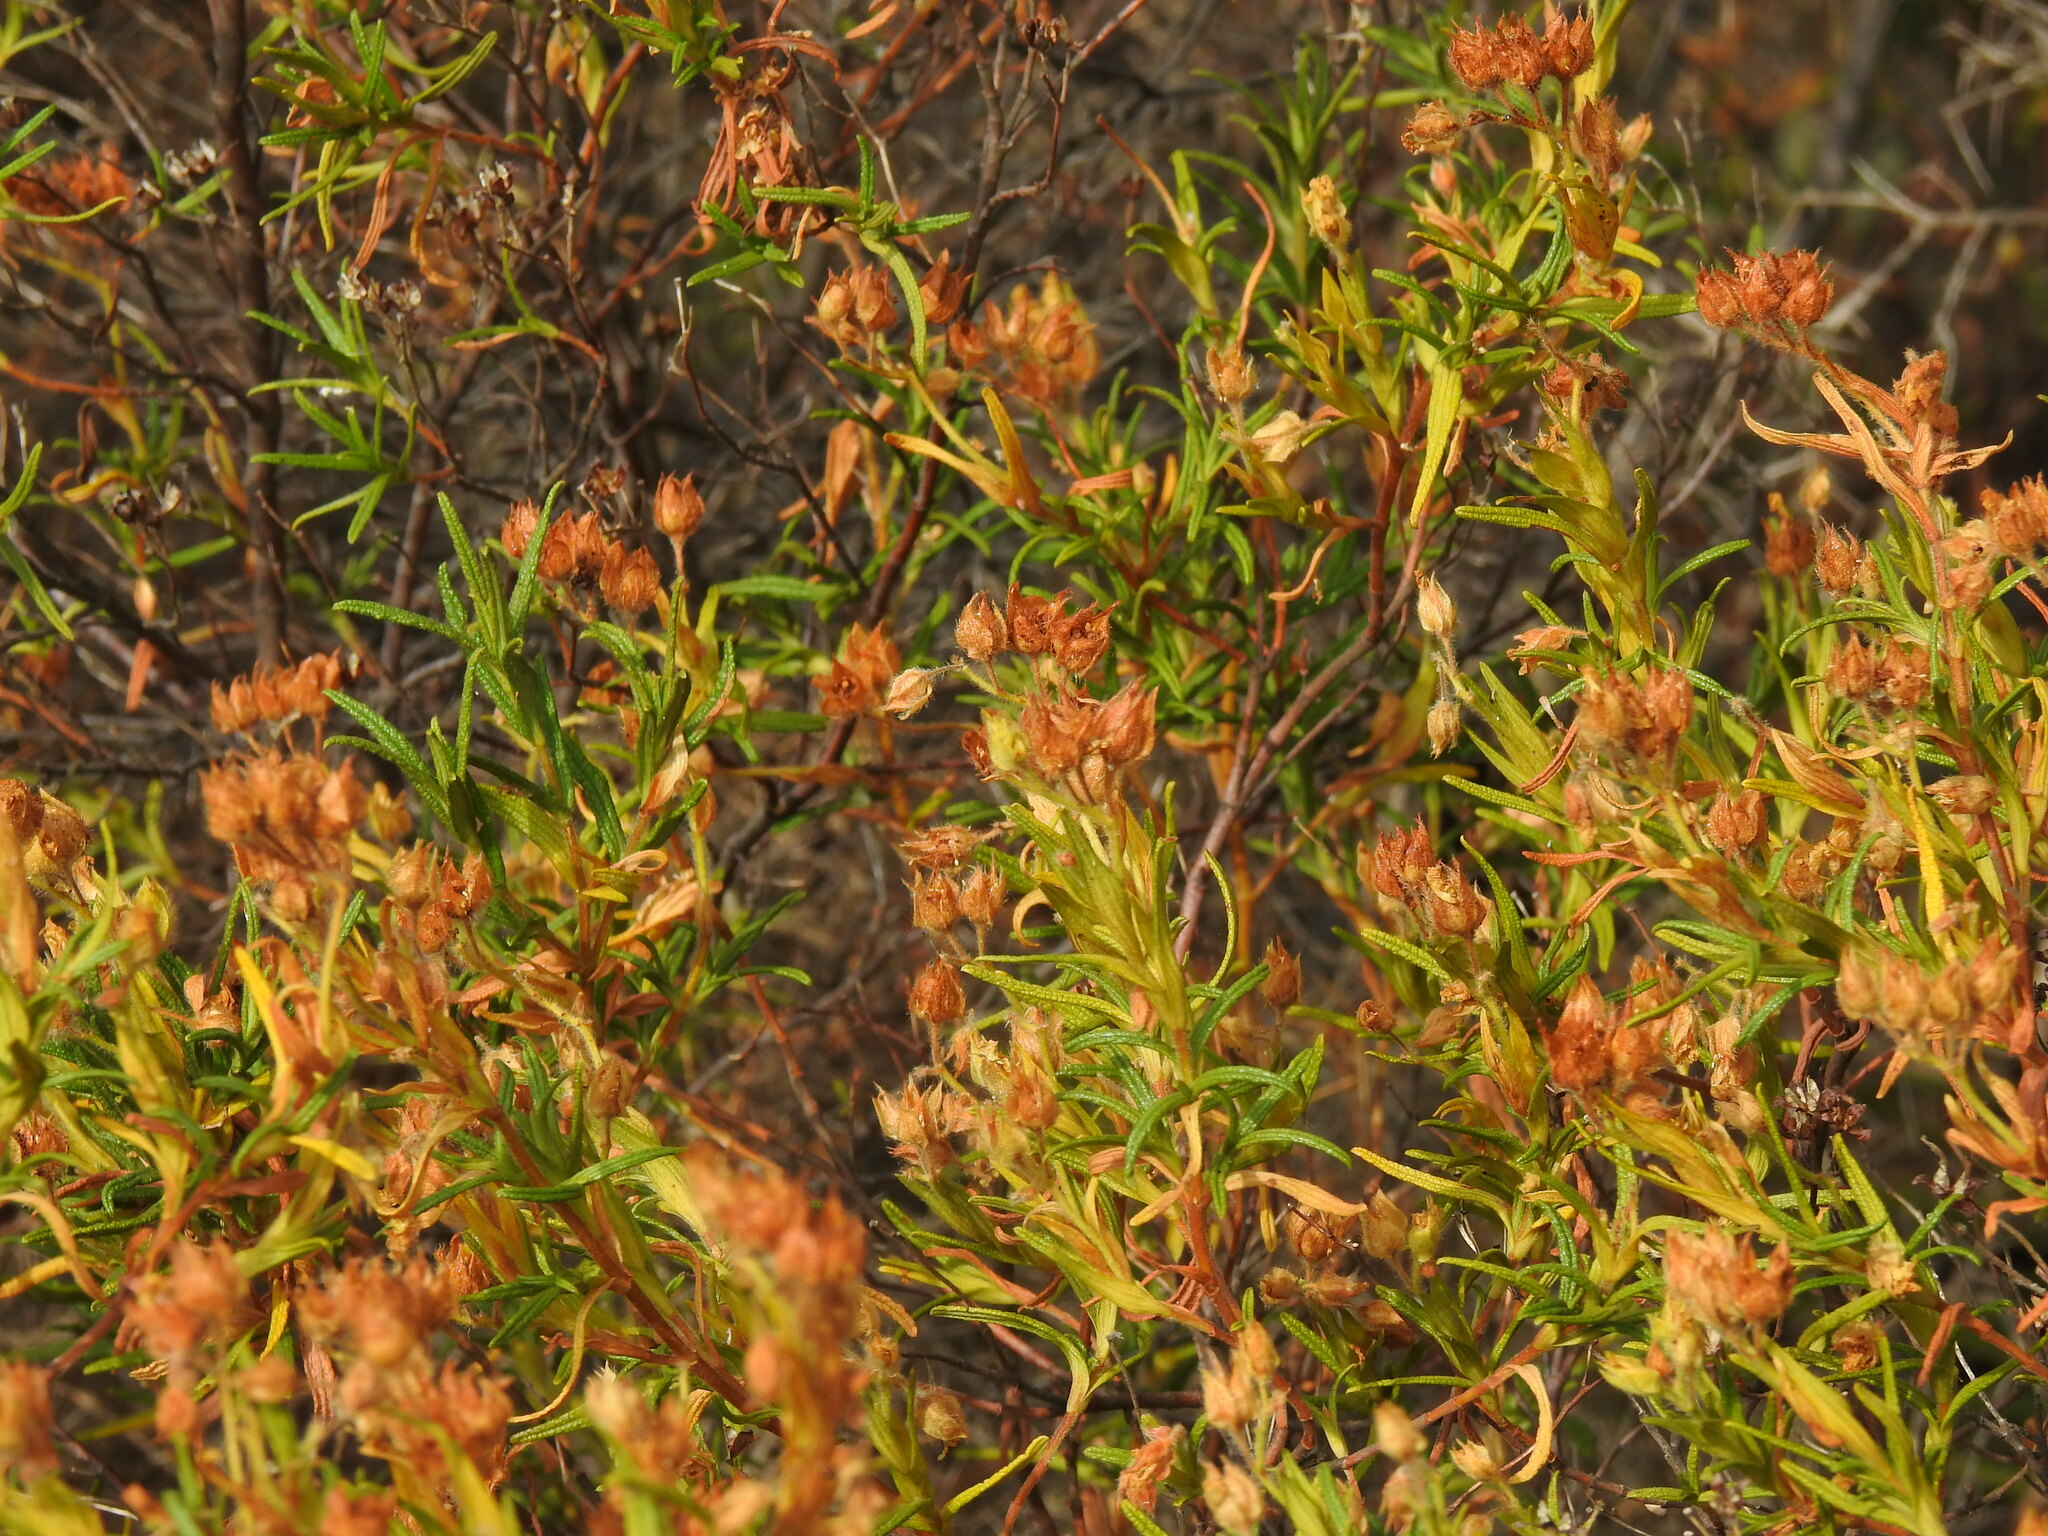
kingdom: Plantae
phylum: Tracheophyta
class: Magnoliopsida
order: Malvales
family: Cistaceae
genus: Cistus
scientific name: Cistus monspeliensis
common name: Montpelier cistus
